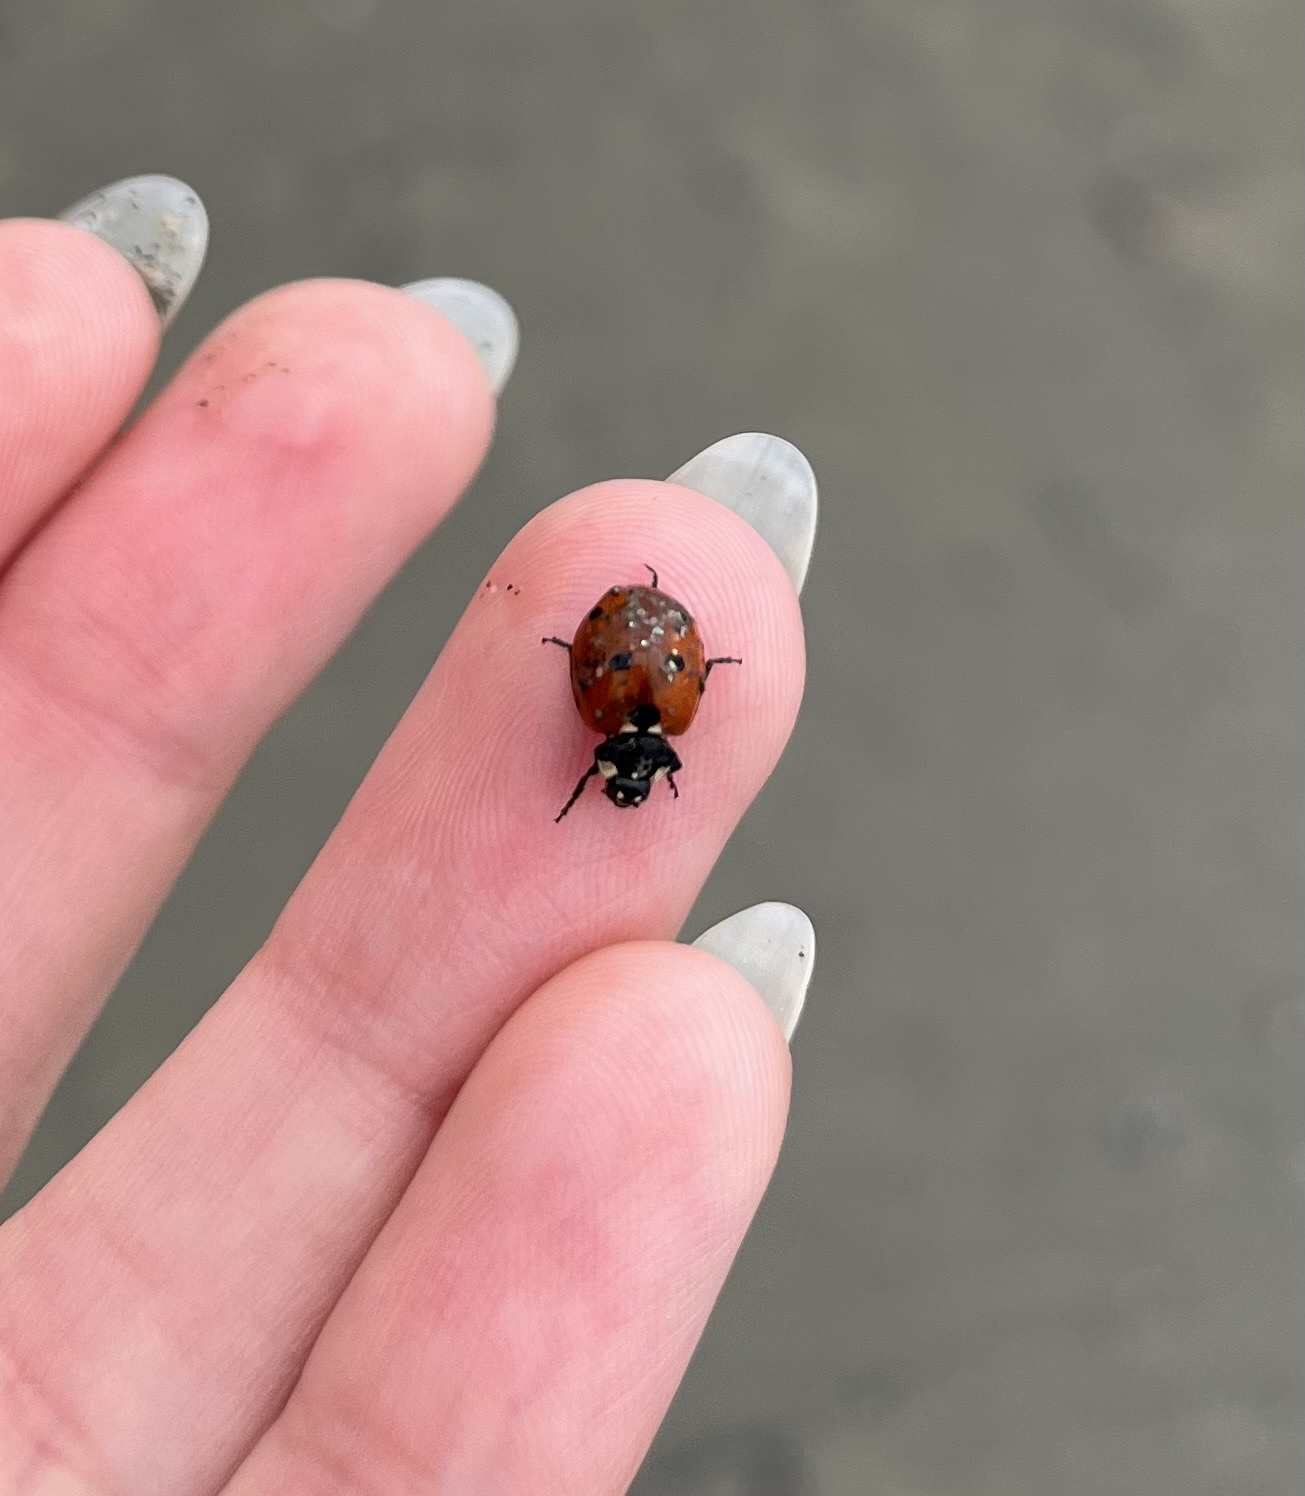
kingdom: Animalia
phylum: Arthropoda
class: Insecta
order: Coleoptera
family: Coccinellidae
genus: Coccinella
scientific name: Coccinella septempunctata
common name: Sevenspotted lady beetle
